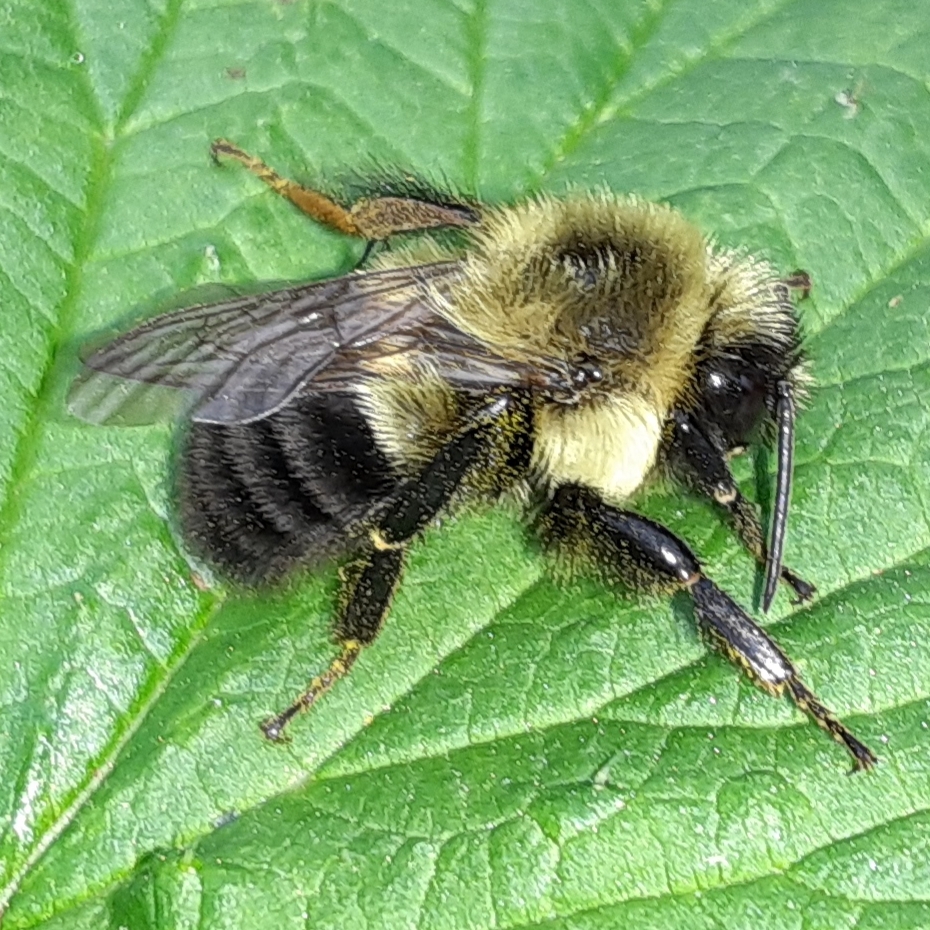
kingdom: Animalia
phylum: Arthropoda
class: Insecta
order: Hymenoptera
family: Apidae
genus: Bombus
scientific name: Bombus impatiens
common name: Common eastern bumble bee
